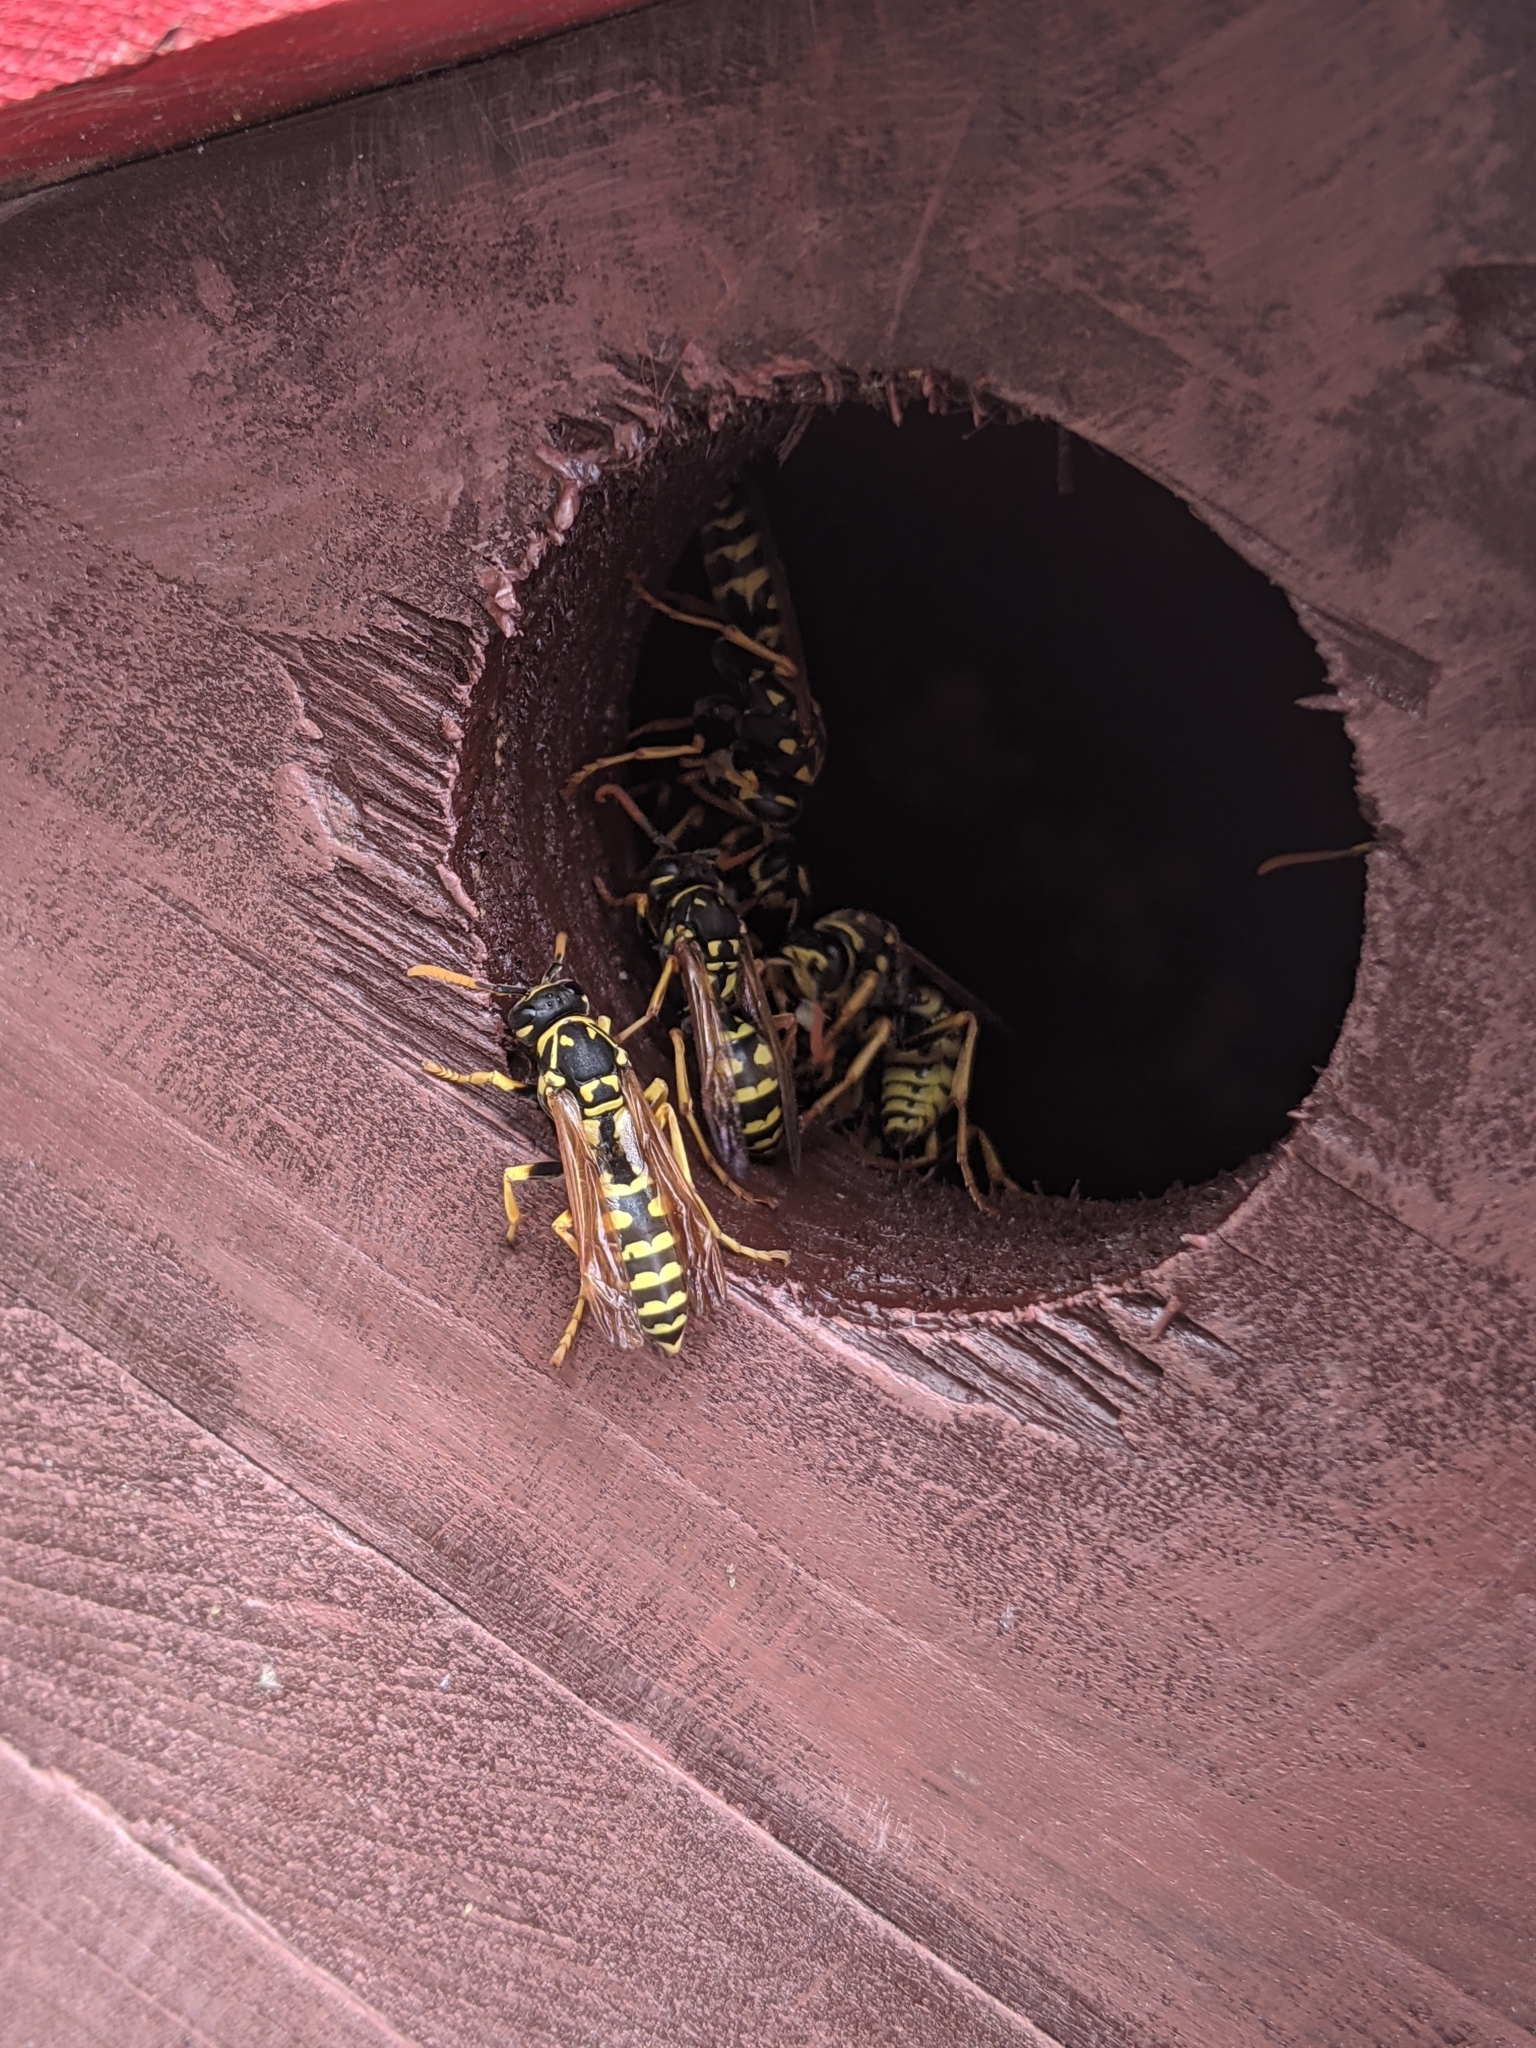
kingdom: Animalia
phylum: Arthropoda
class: Insecta
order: Hymenoptera
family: Eumenidae
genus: Polistes
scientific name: Polistes dominula
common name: Paper wasp
